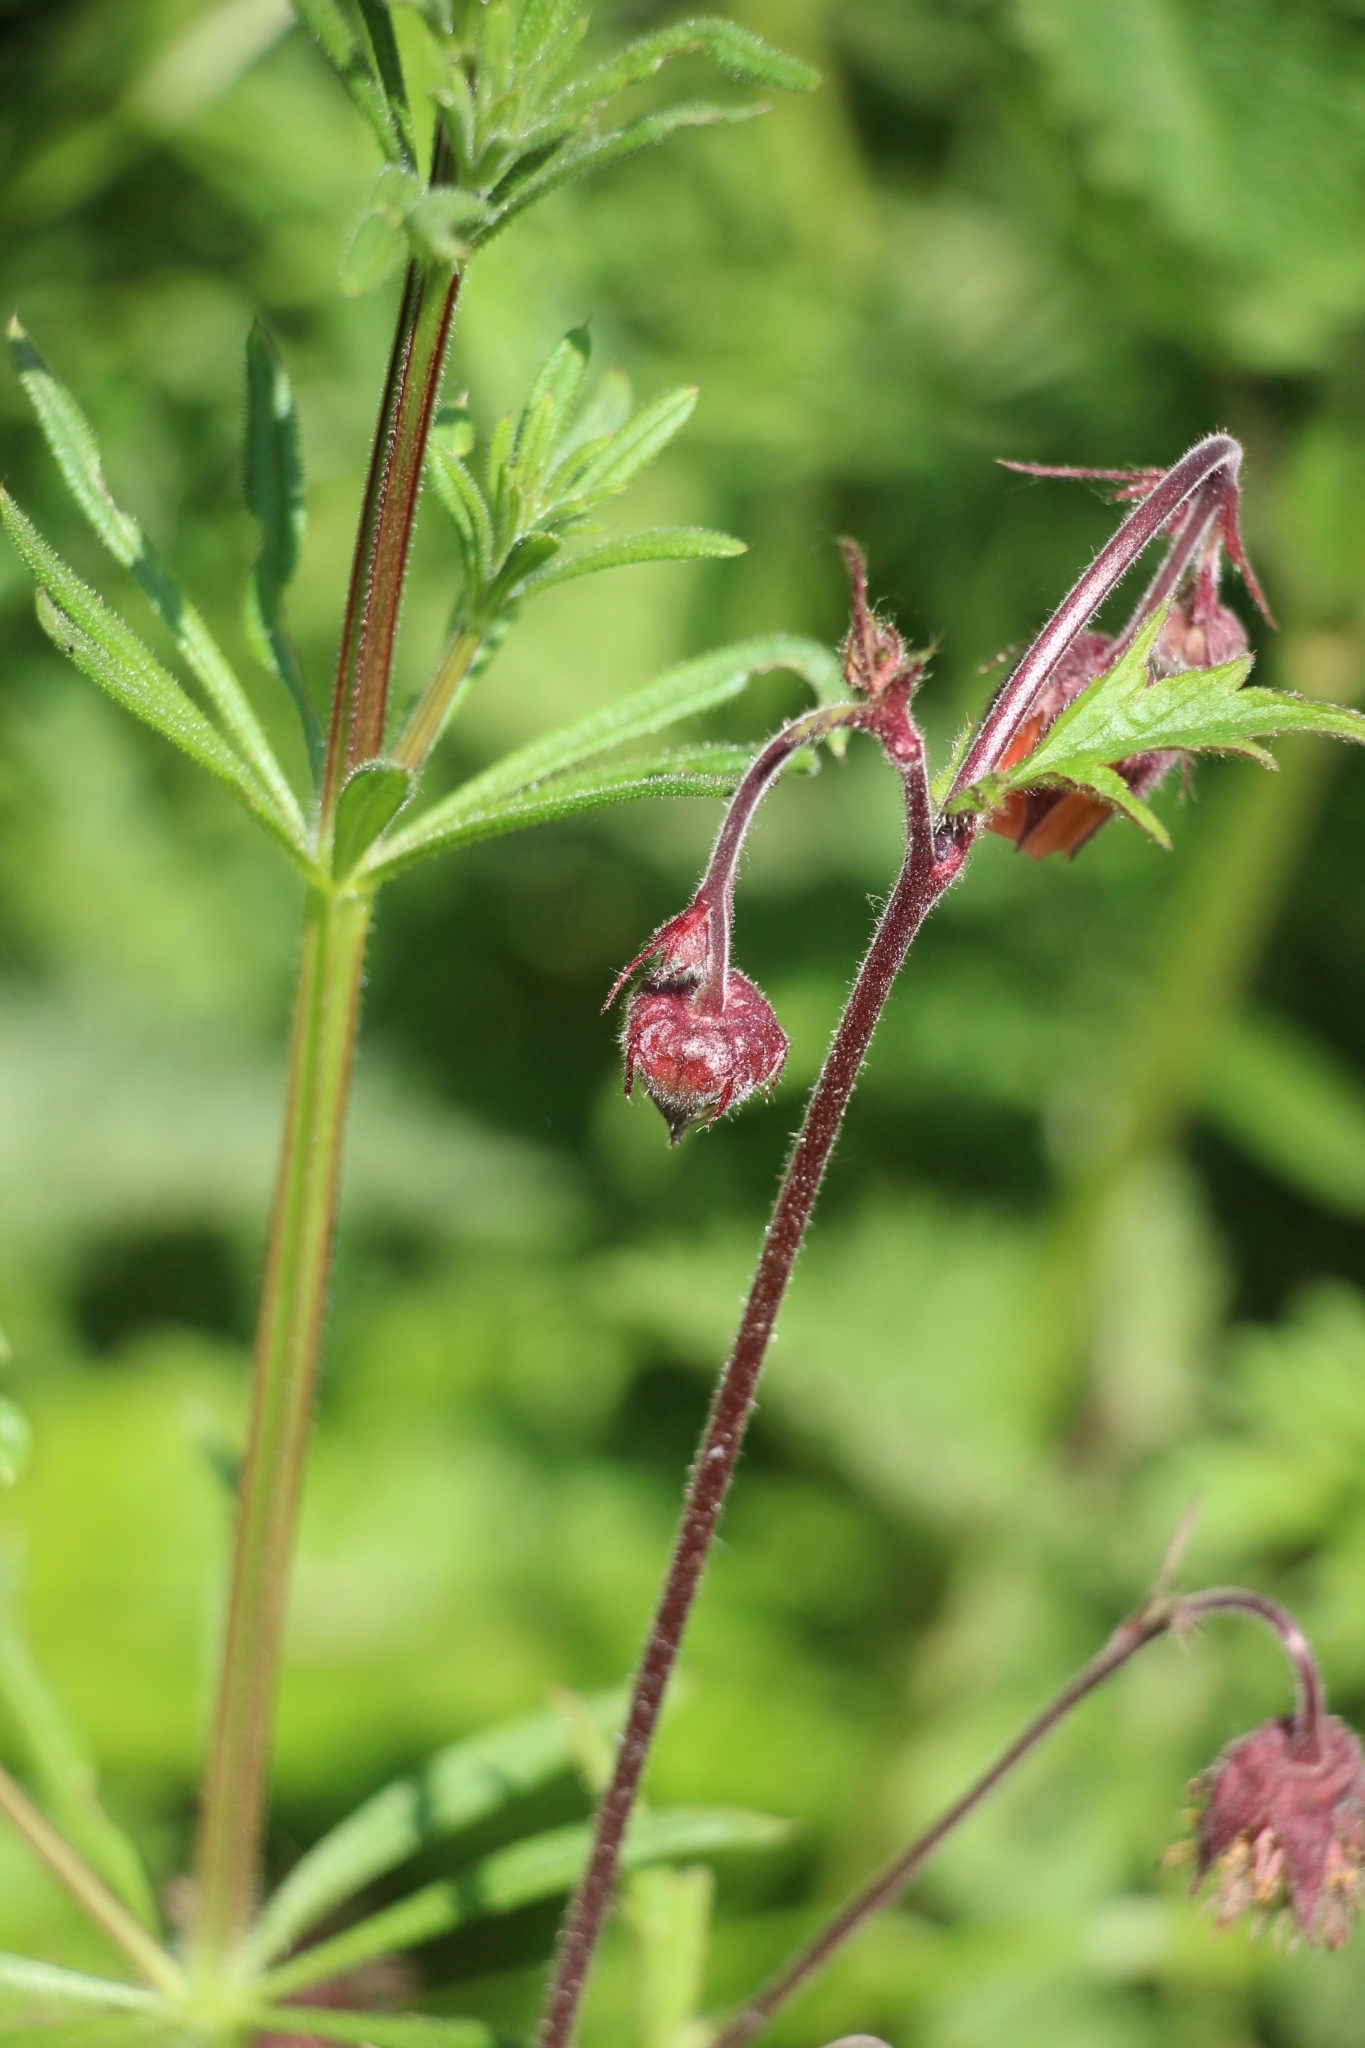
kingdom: Plantae
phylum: Tracheophyta
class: Magnoliopsida
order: Rosales
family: Rosaceae
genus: Geum
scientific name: Geum rivale
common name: Water avens
